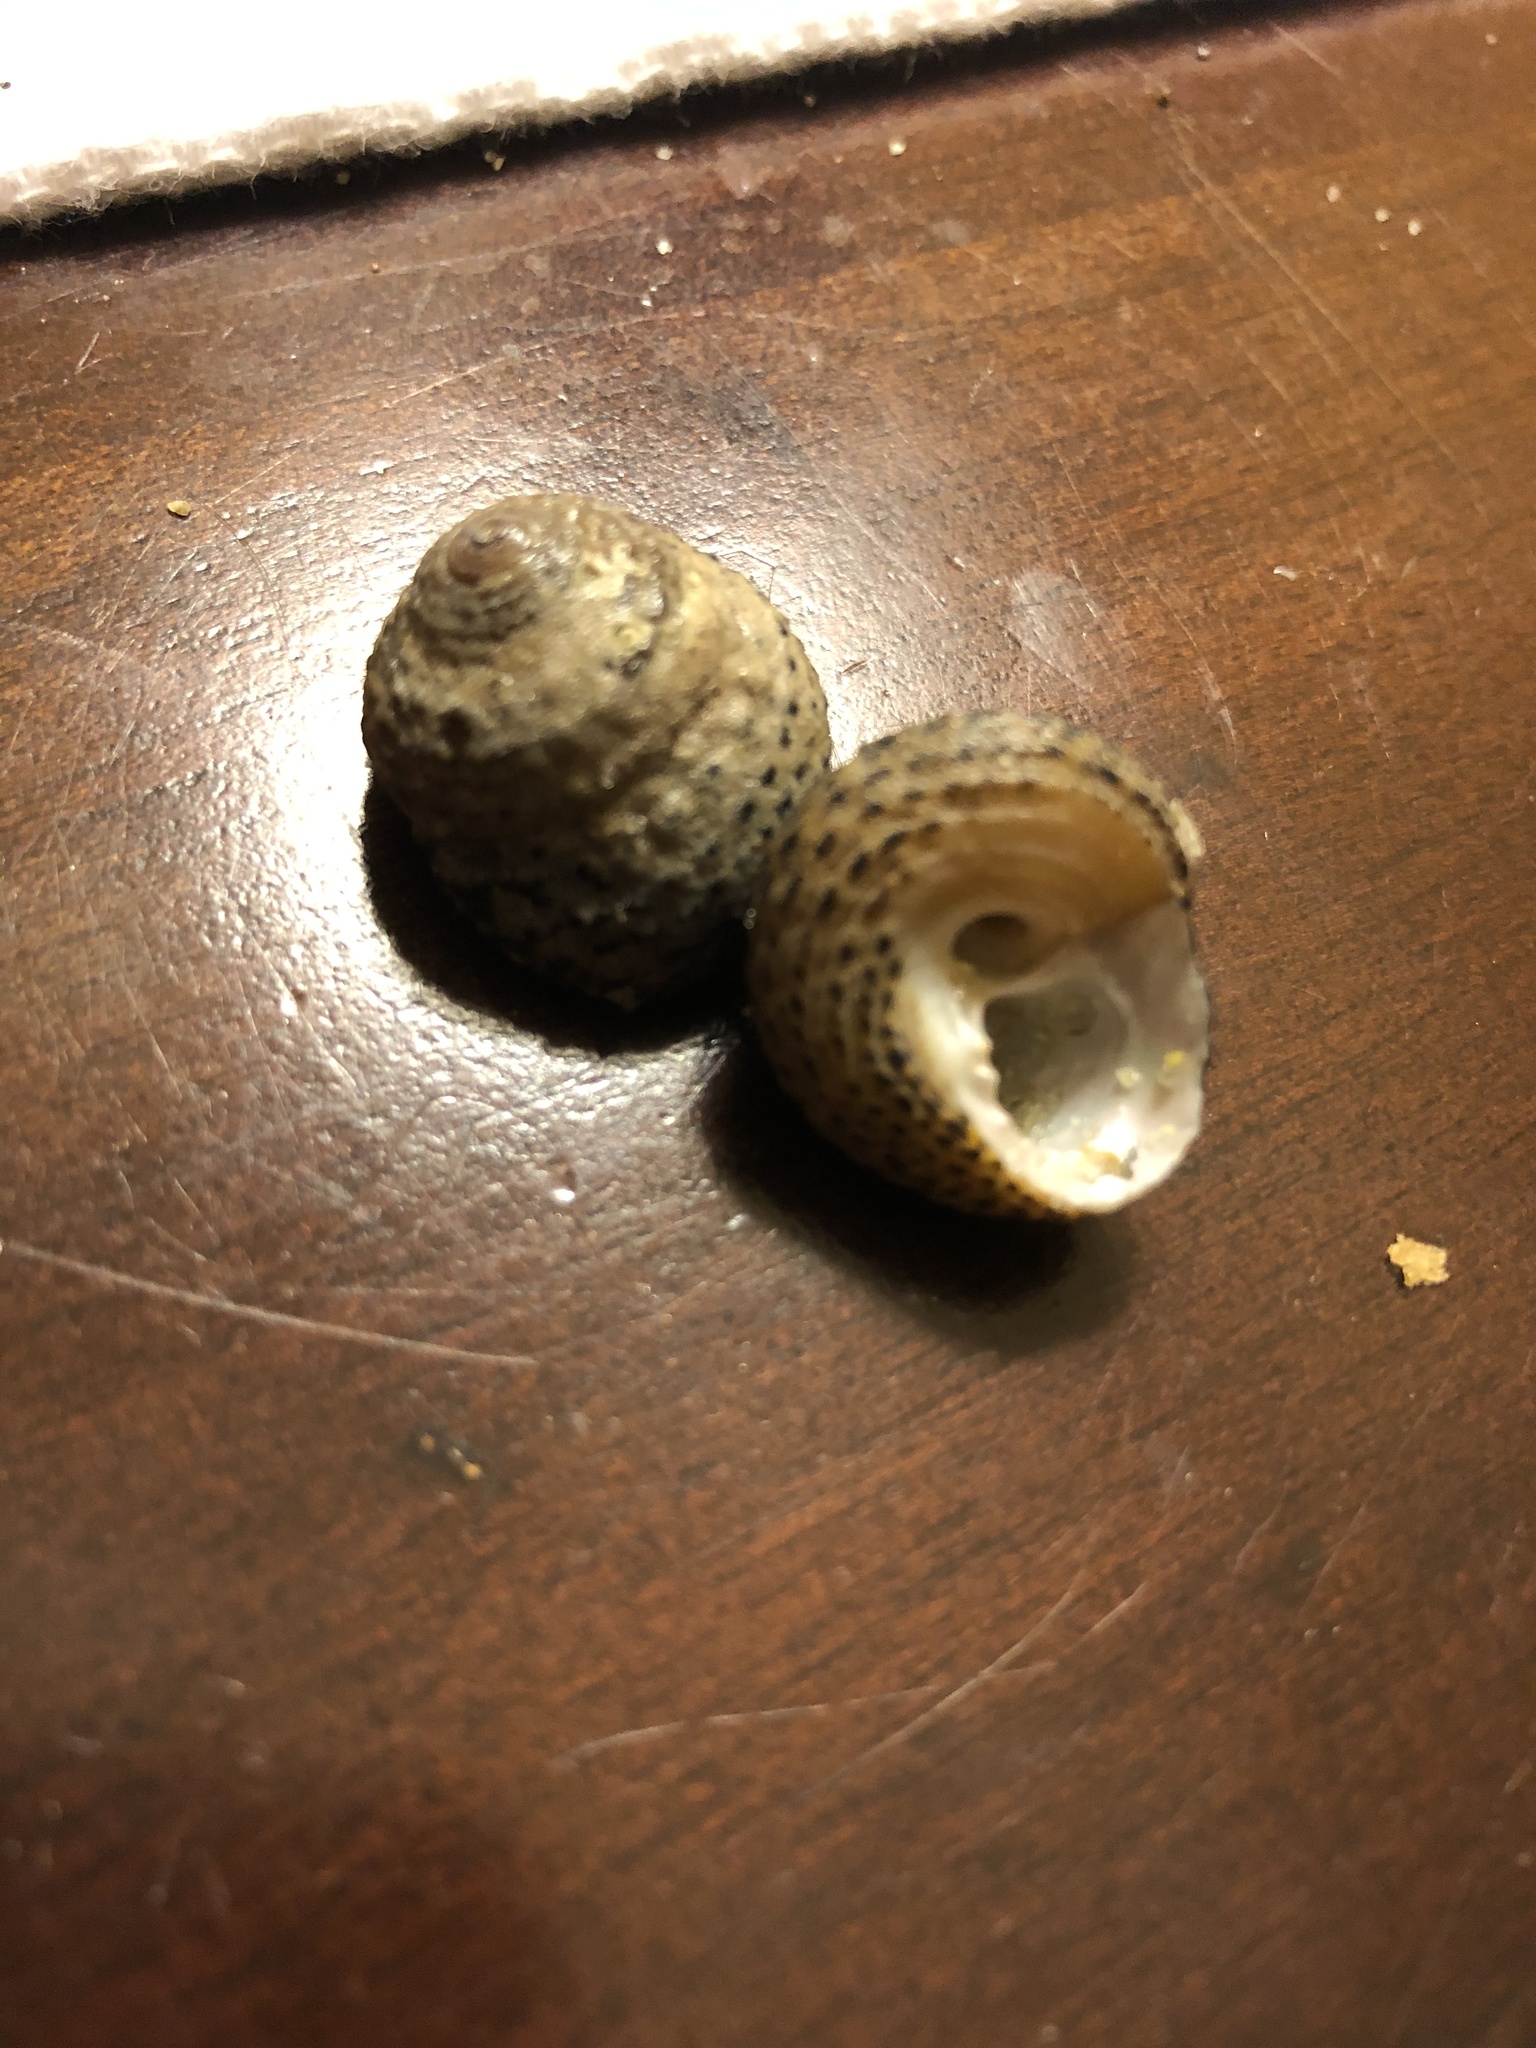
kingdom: Animalia
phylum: Mollusca
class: Gastropoda
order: Trochida
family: Tegulidae
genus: Tegula
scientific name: Tegula eiseni
